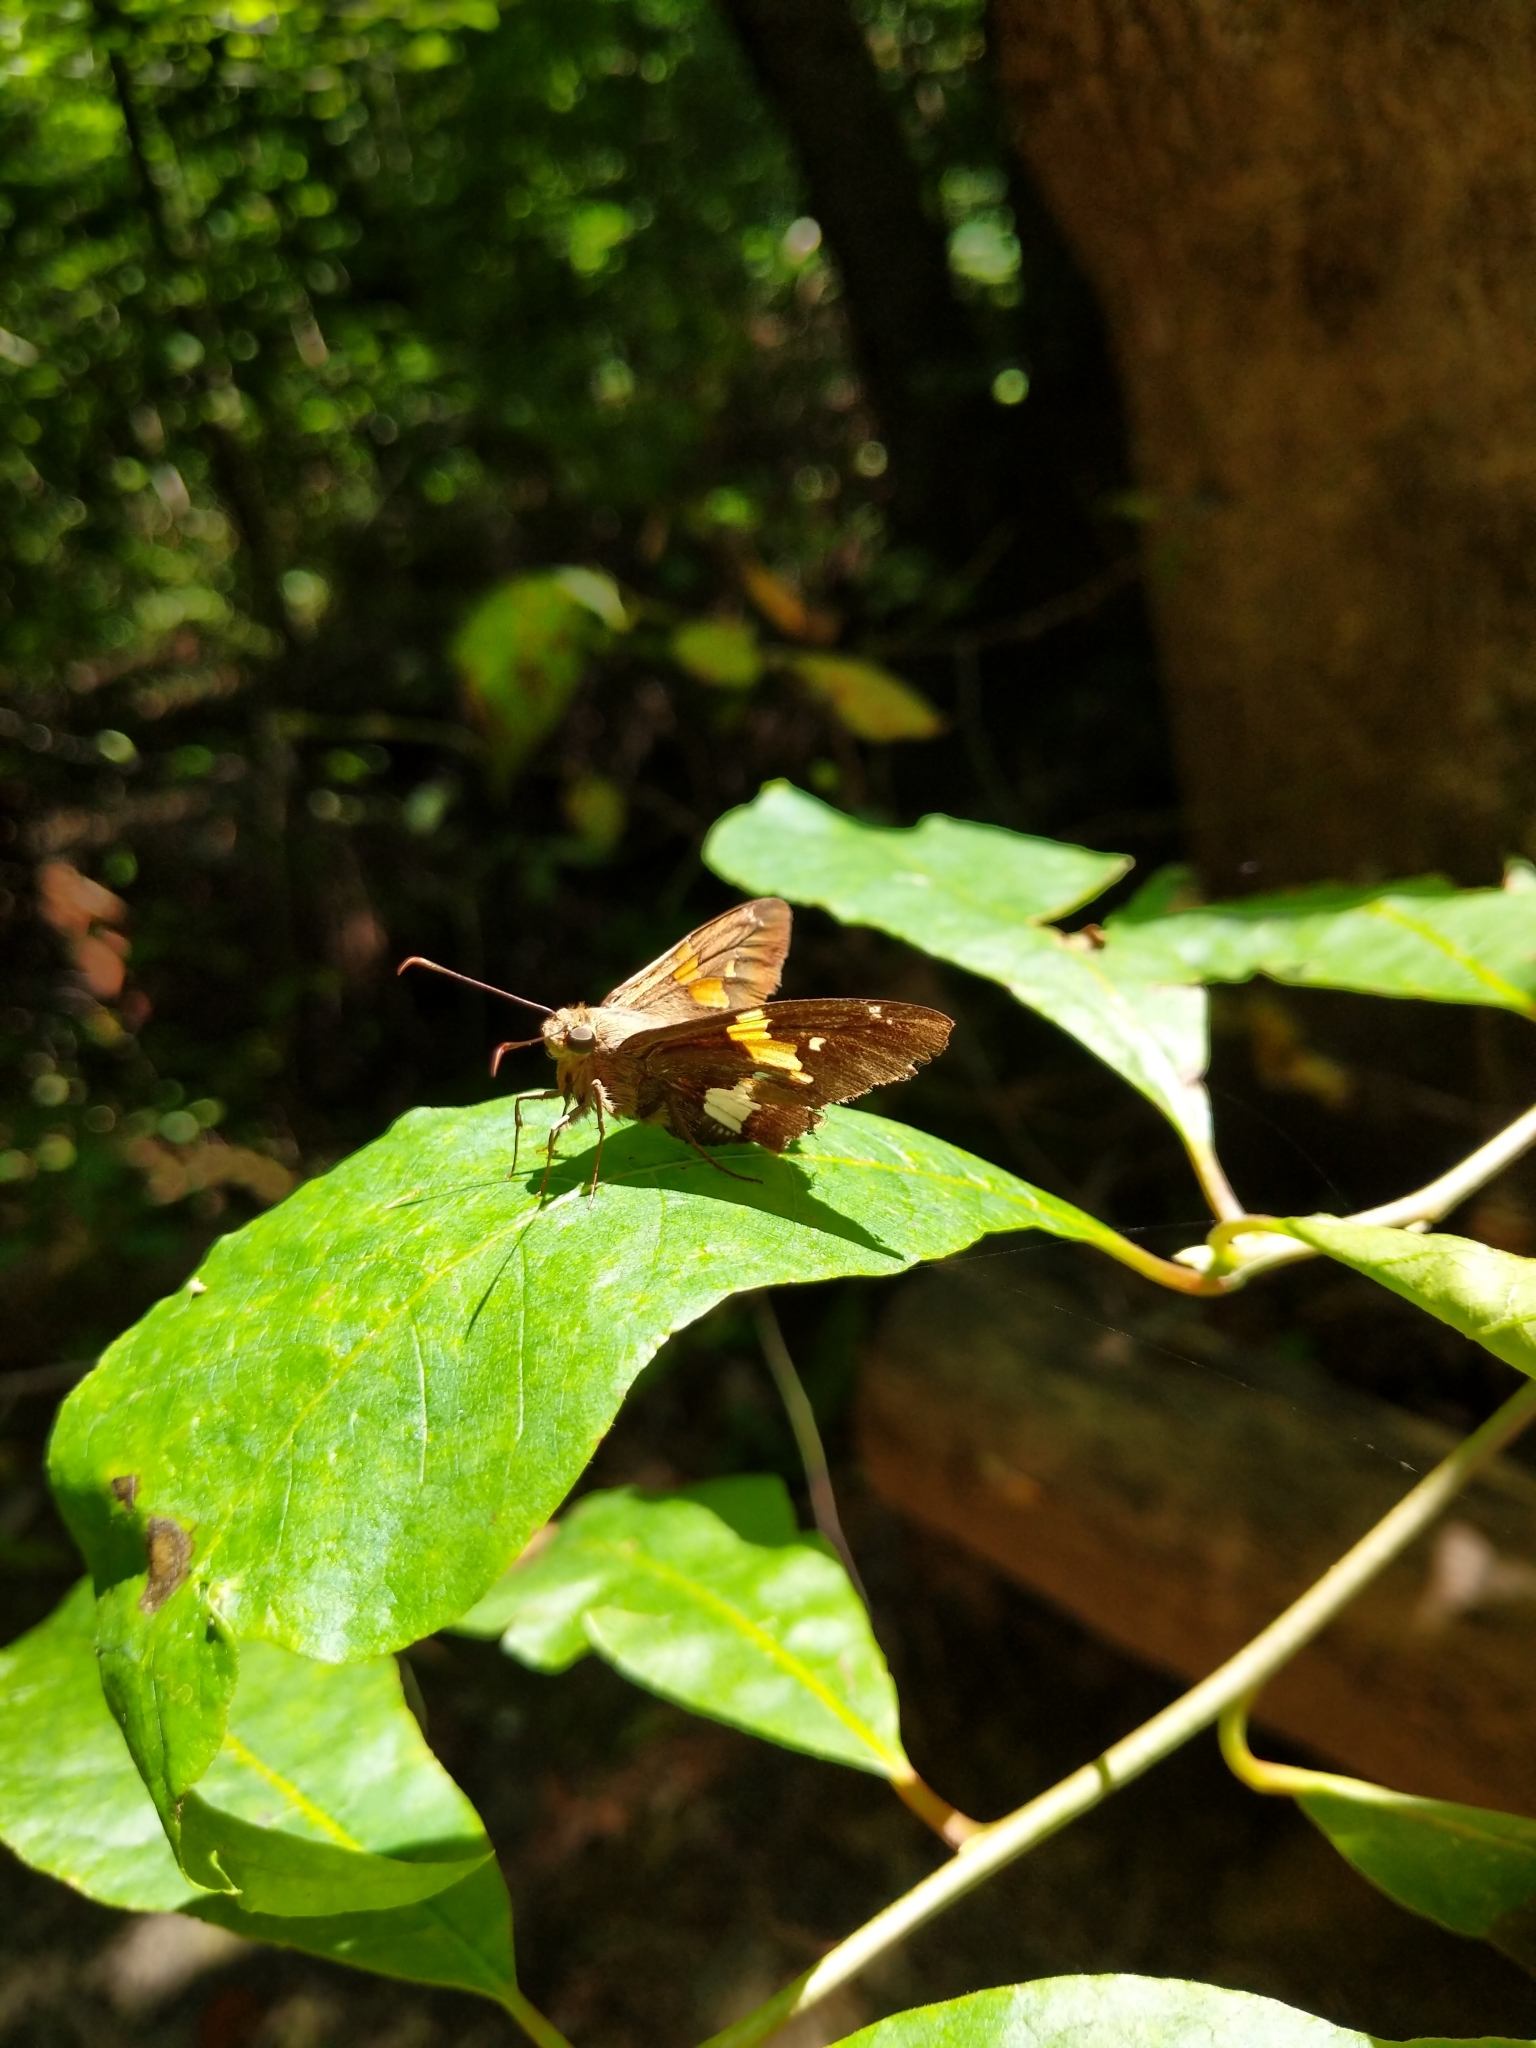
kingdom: Animalia
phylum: Arthropoda
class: Insecta
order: Lepidoptera
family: Hesperiidae
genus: Epargyreus
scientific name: Epargyreus clarus
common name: Silver-spotted skipper
